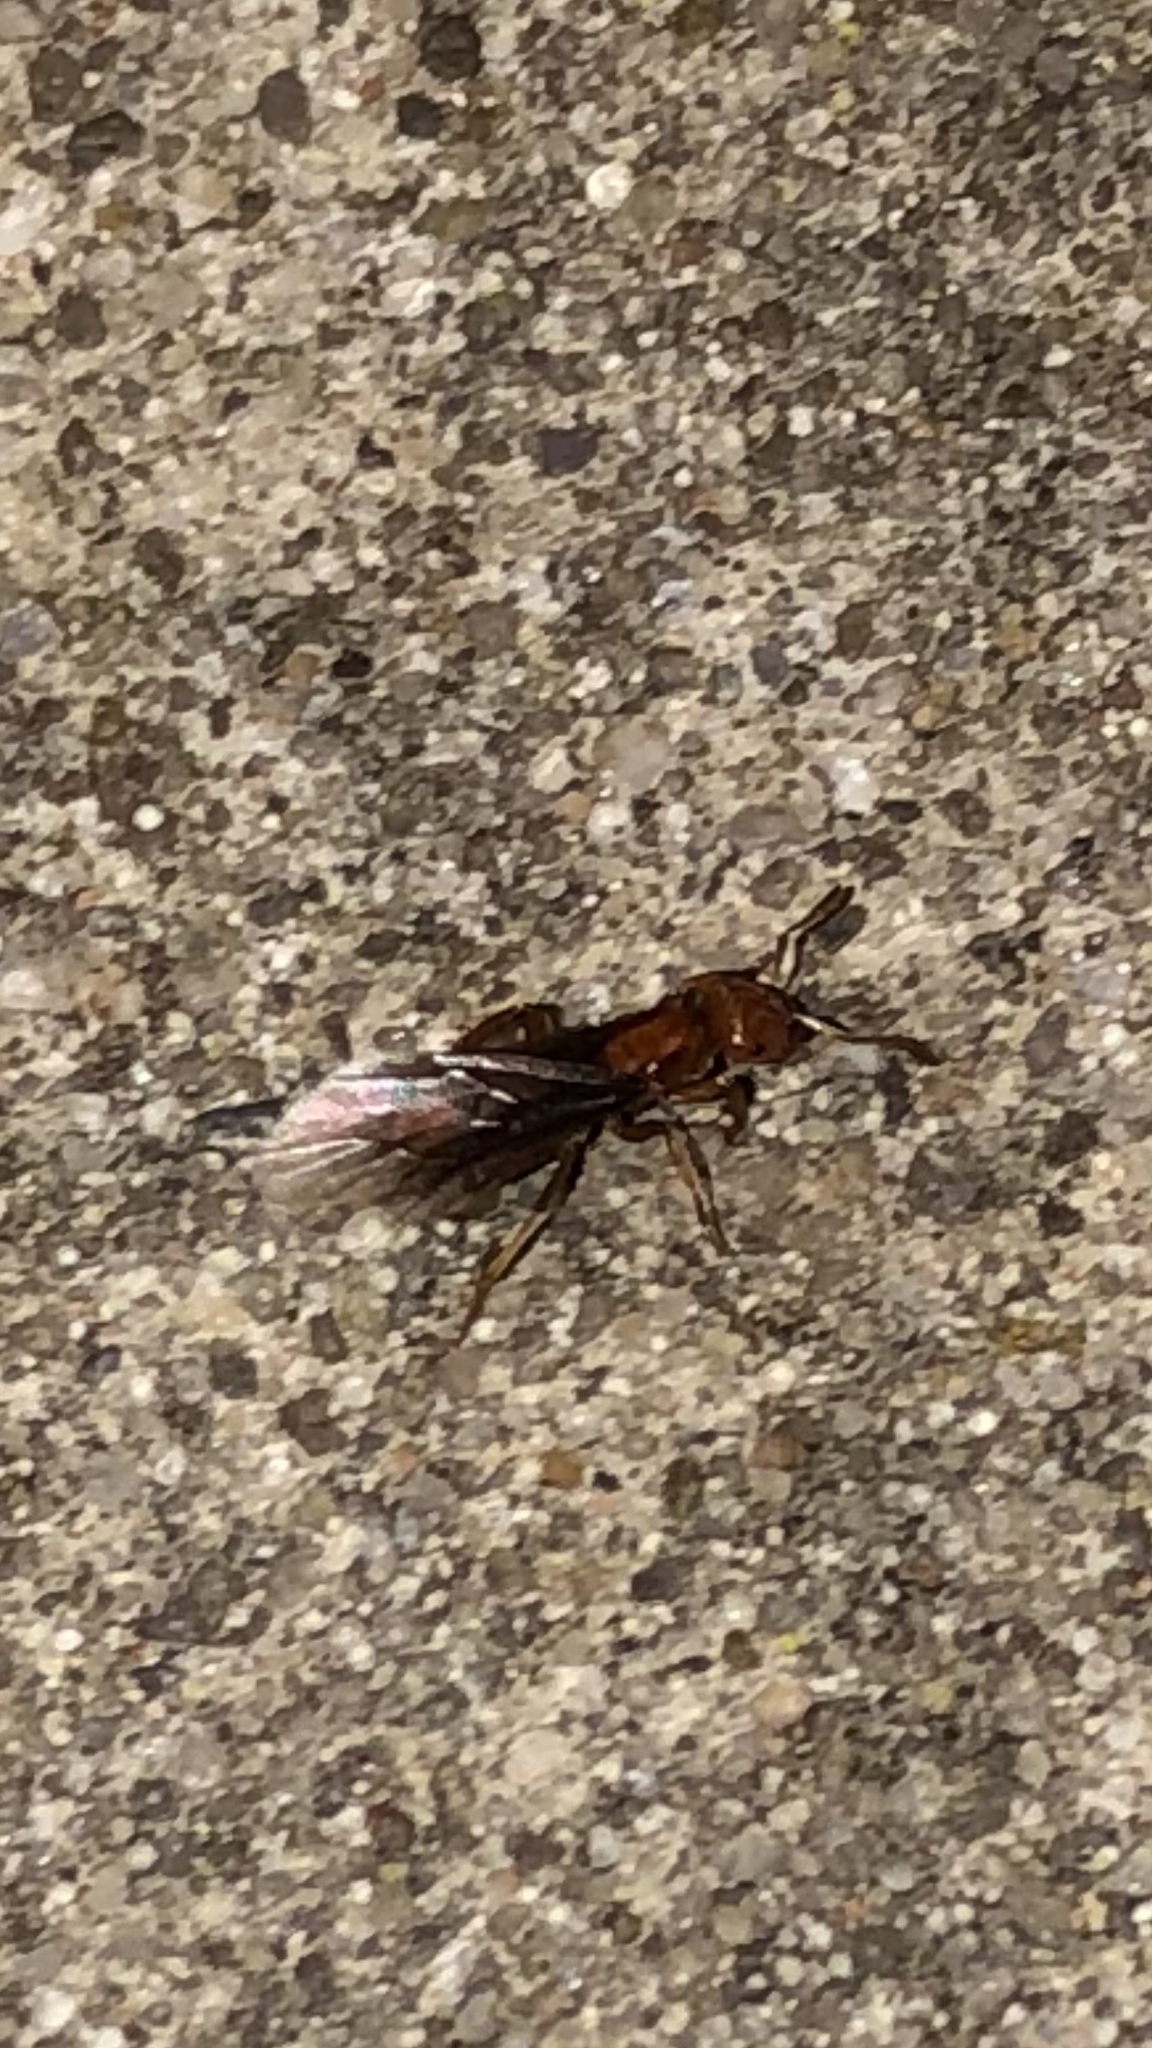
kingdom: Animalia
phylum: Arthropoda
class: Insecta
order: Hymenoptera
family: Formicidae
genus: Acanthomyops
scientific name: Acanthomyops interjectus
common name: Larger yellow ant
